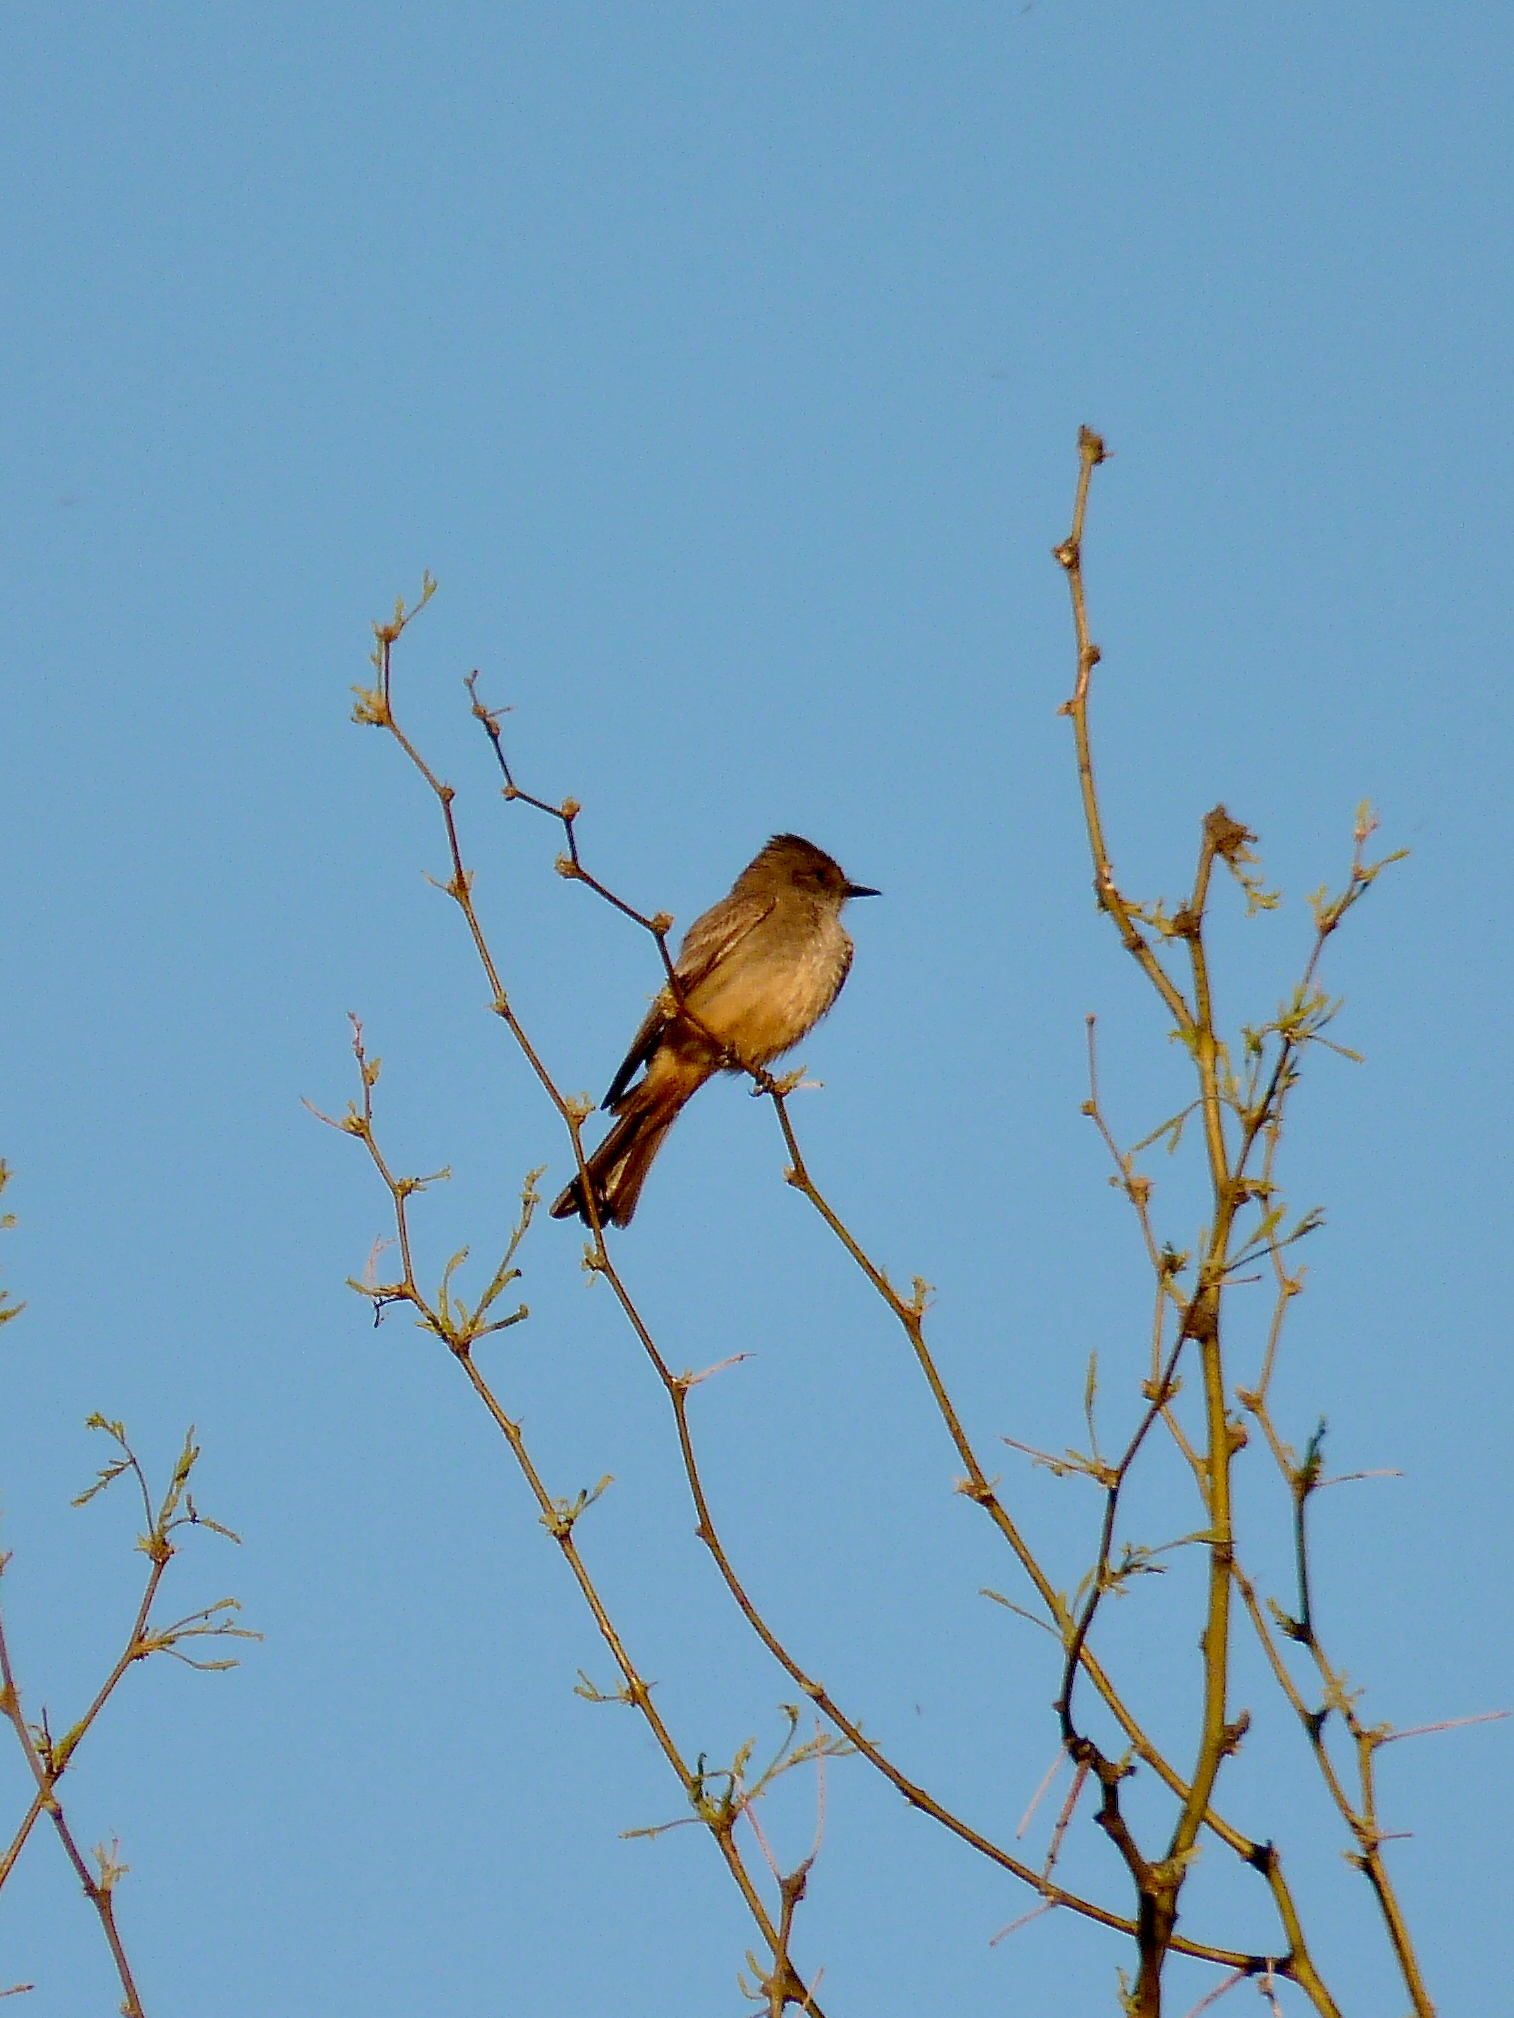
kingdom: Animalia
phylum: Chordata
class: Aves
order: Passeriformes
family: Tyrannidae
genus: Sayornis
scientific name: Sayornis saya
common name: Say's phoebe
